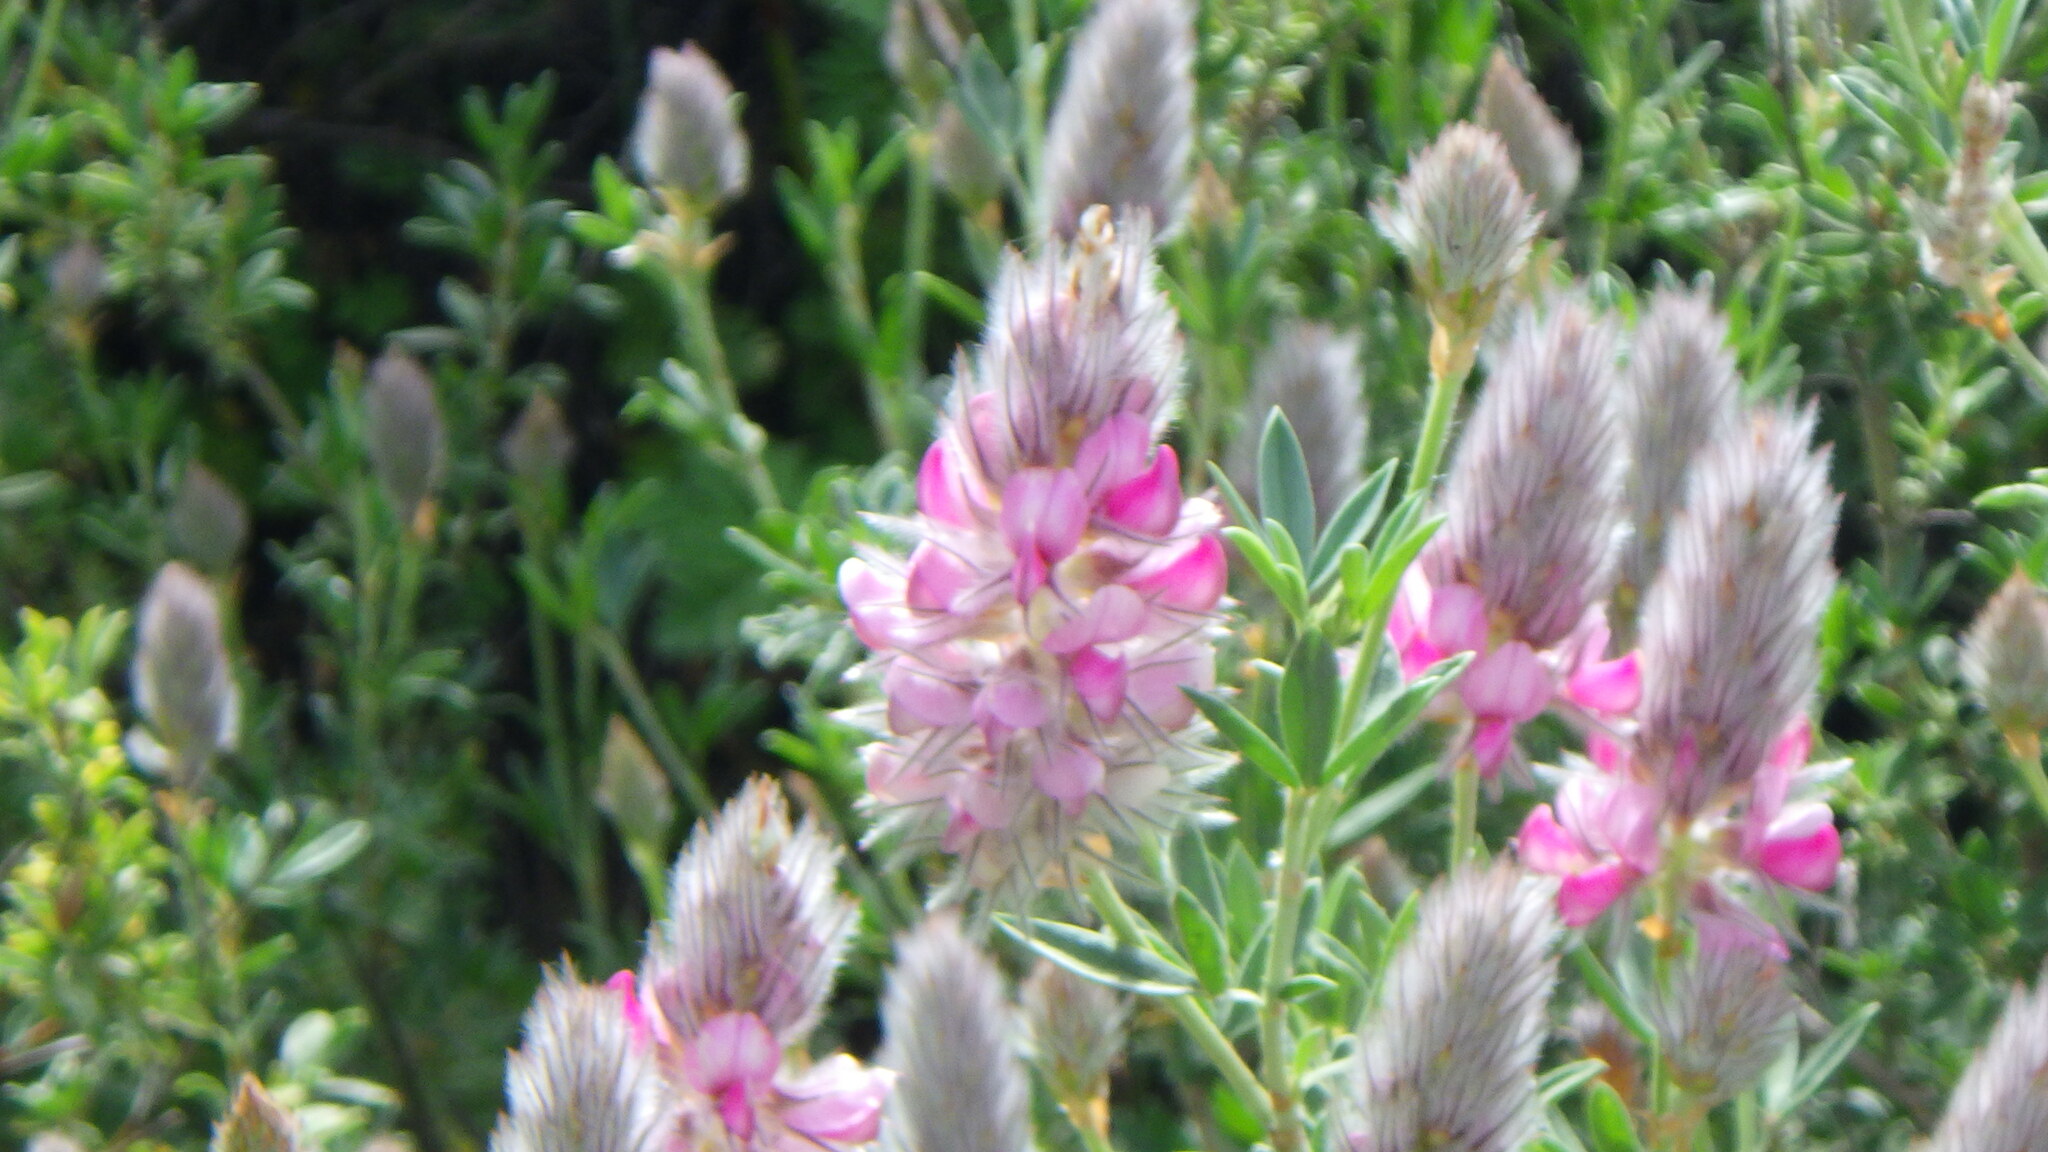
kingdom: Plantae
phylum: Tracheophyta
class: Magnoliopsida
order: Fabales
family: Fabaceae
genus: Ebenus
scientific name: Ebenus cretica
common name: Cretan silver bush
